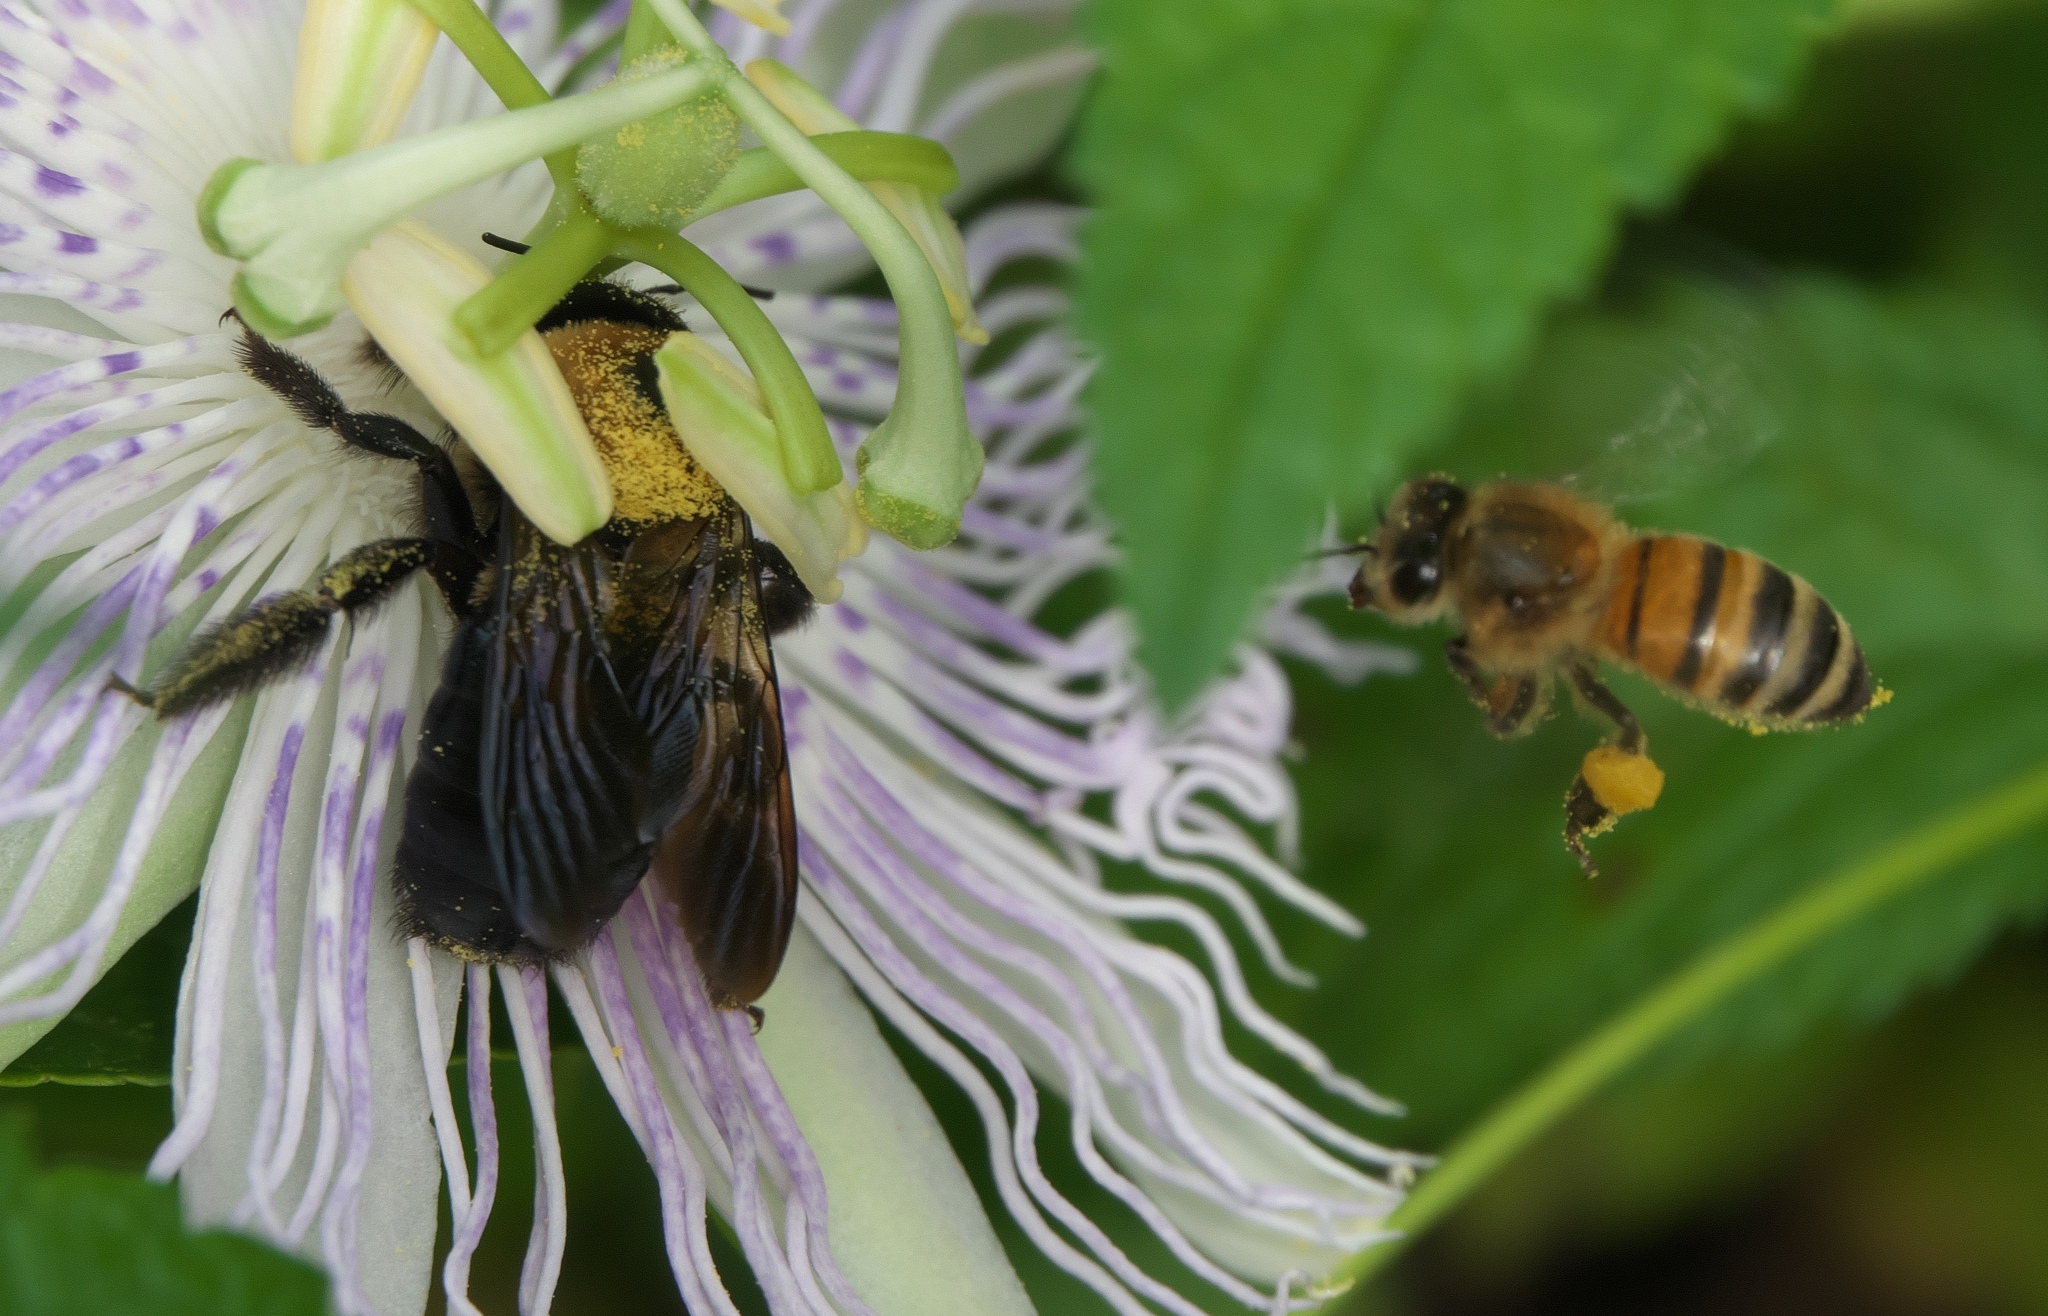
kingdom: Animalia
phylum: Arthropoda
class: Insecta
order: Hymenoptera
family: Apidae
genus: Xylocopa
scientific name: Xylocopa virginica
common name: Carpenter bee
